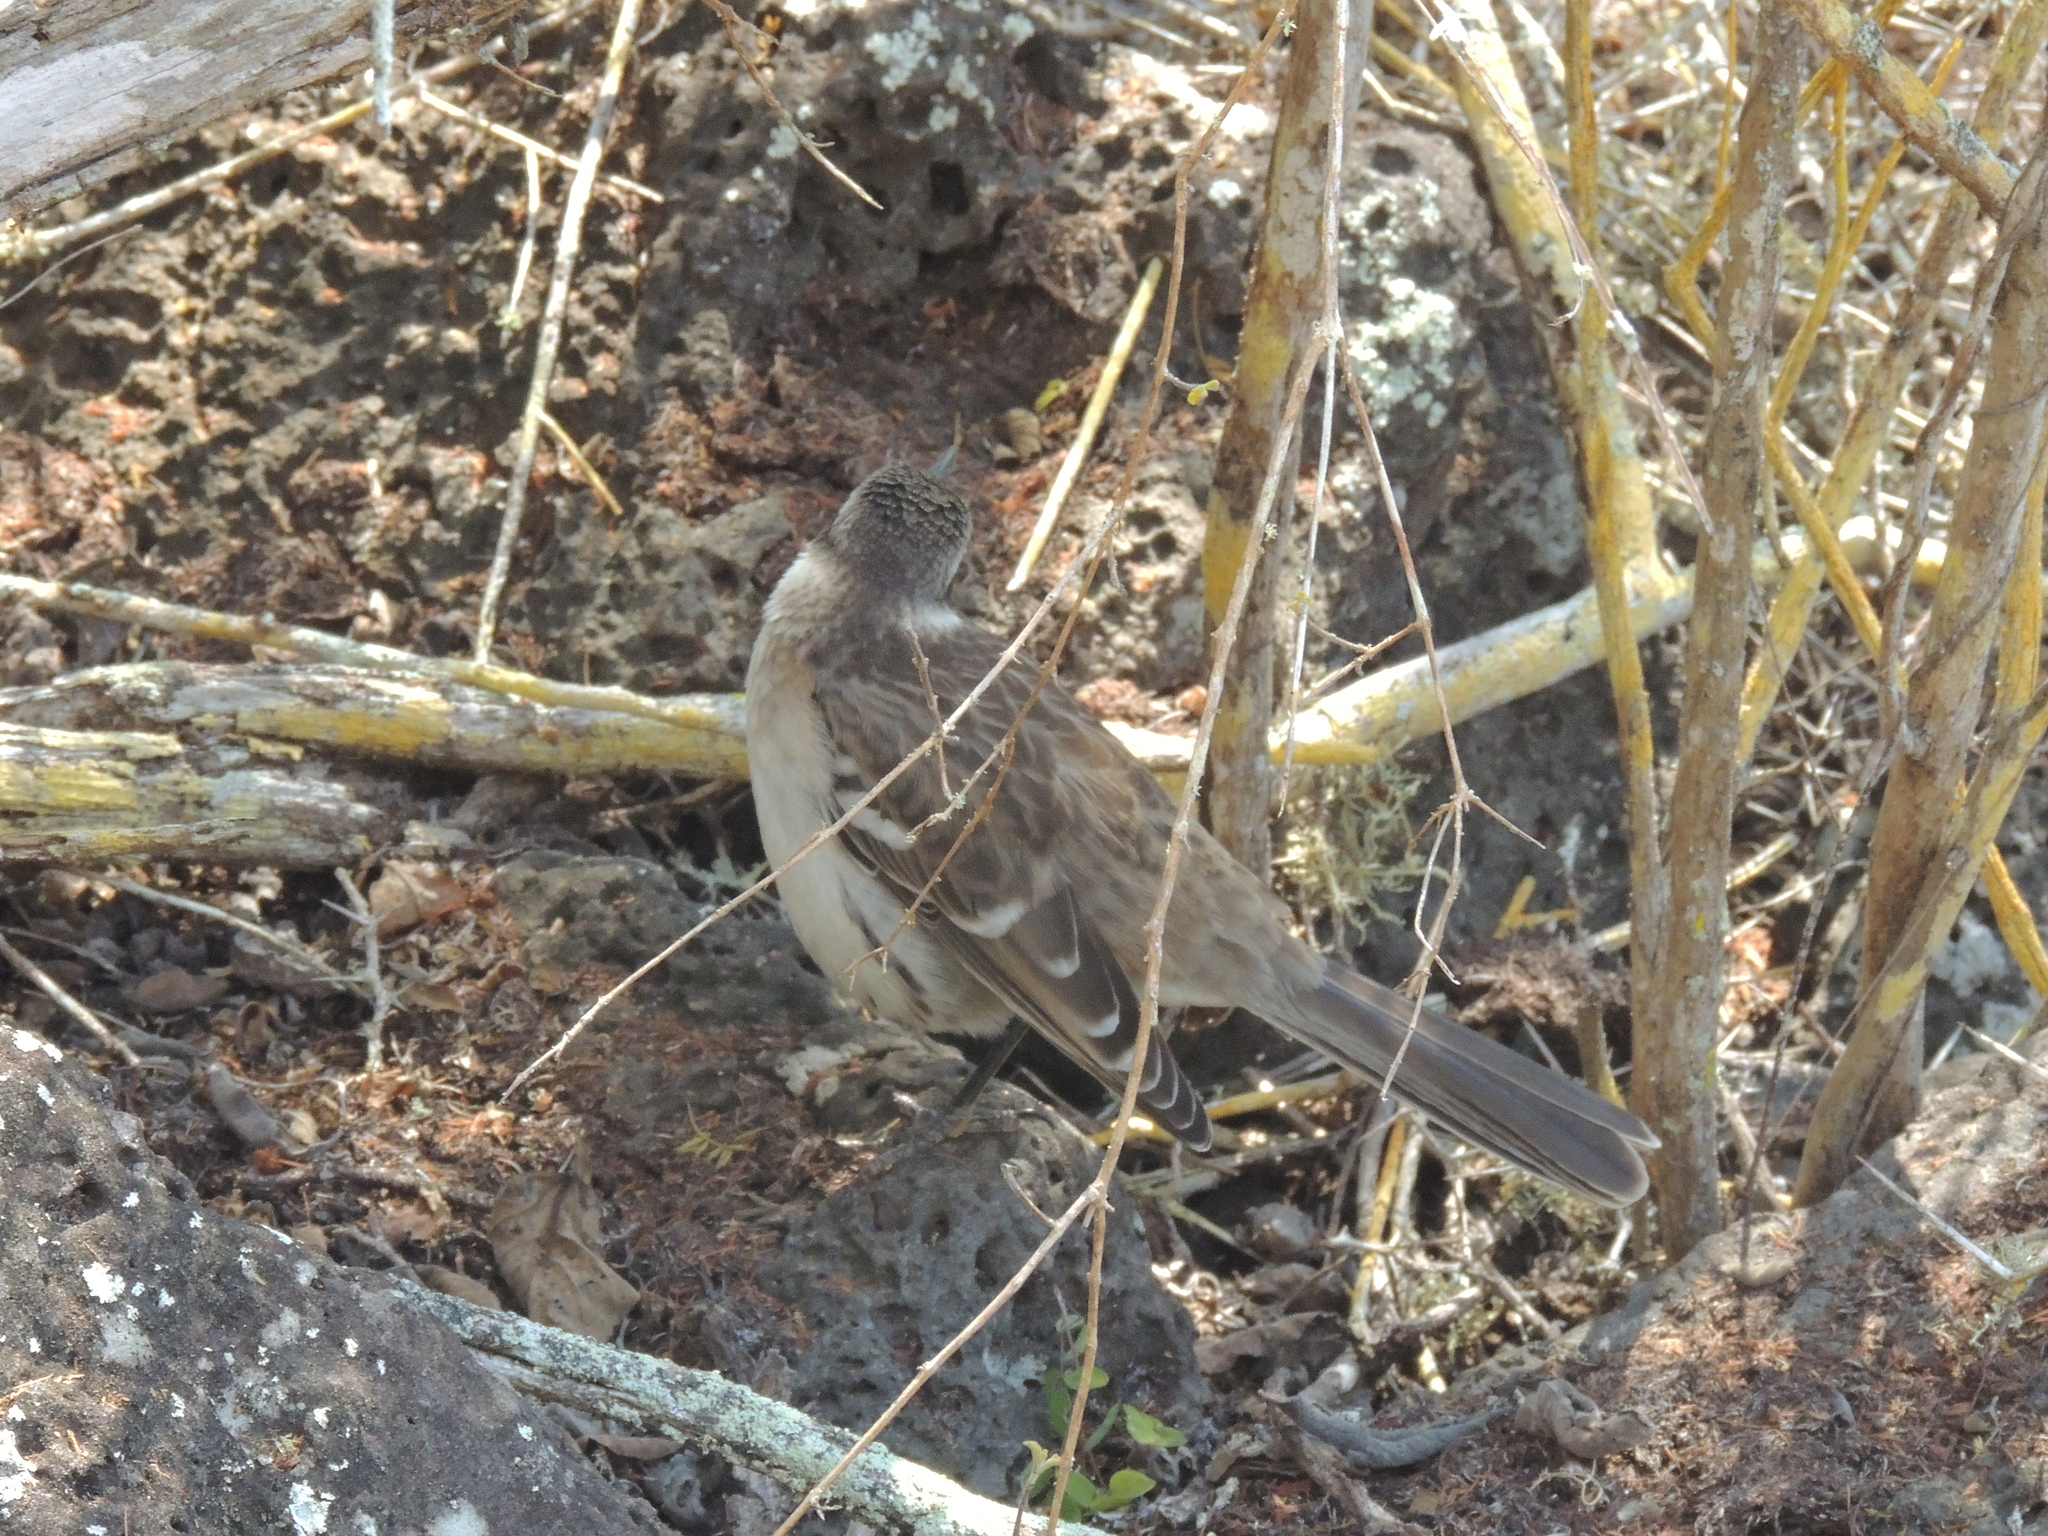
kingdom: Animalia
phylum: Chordata
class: Aves
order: Passeriformes
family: Mimidae
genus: Mimus
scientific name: Mimus parvulus
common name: Galapagos mockingbird
